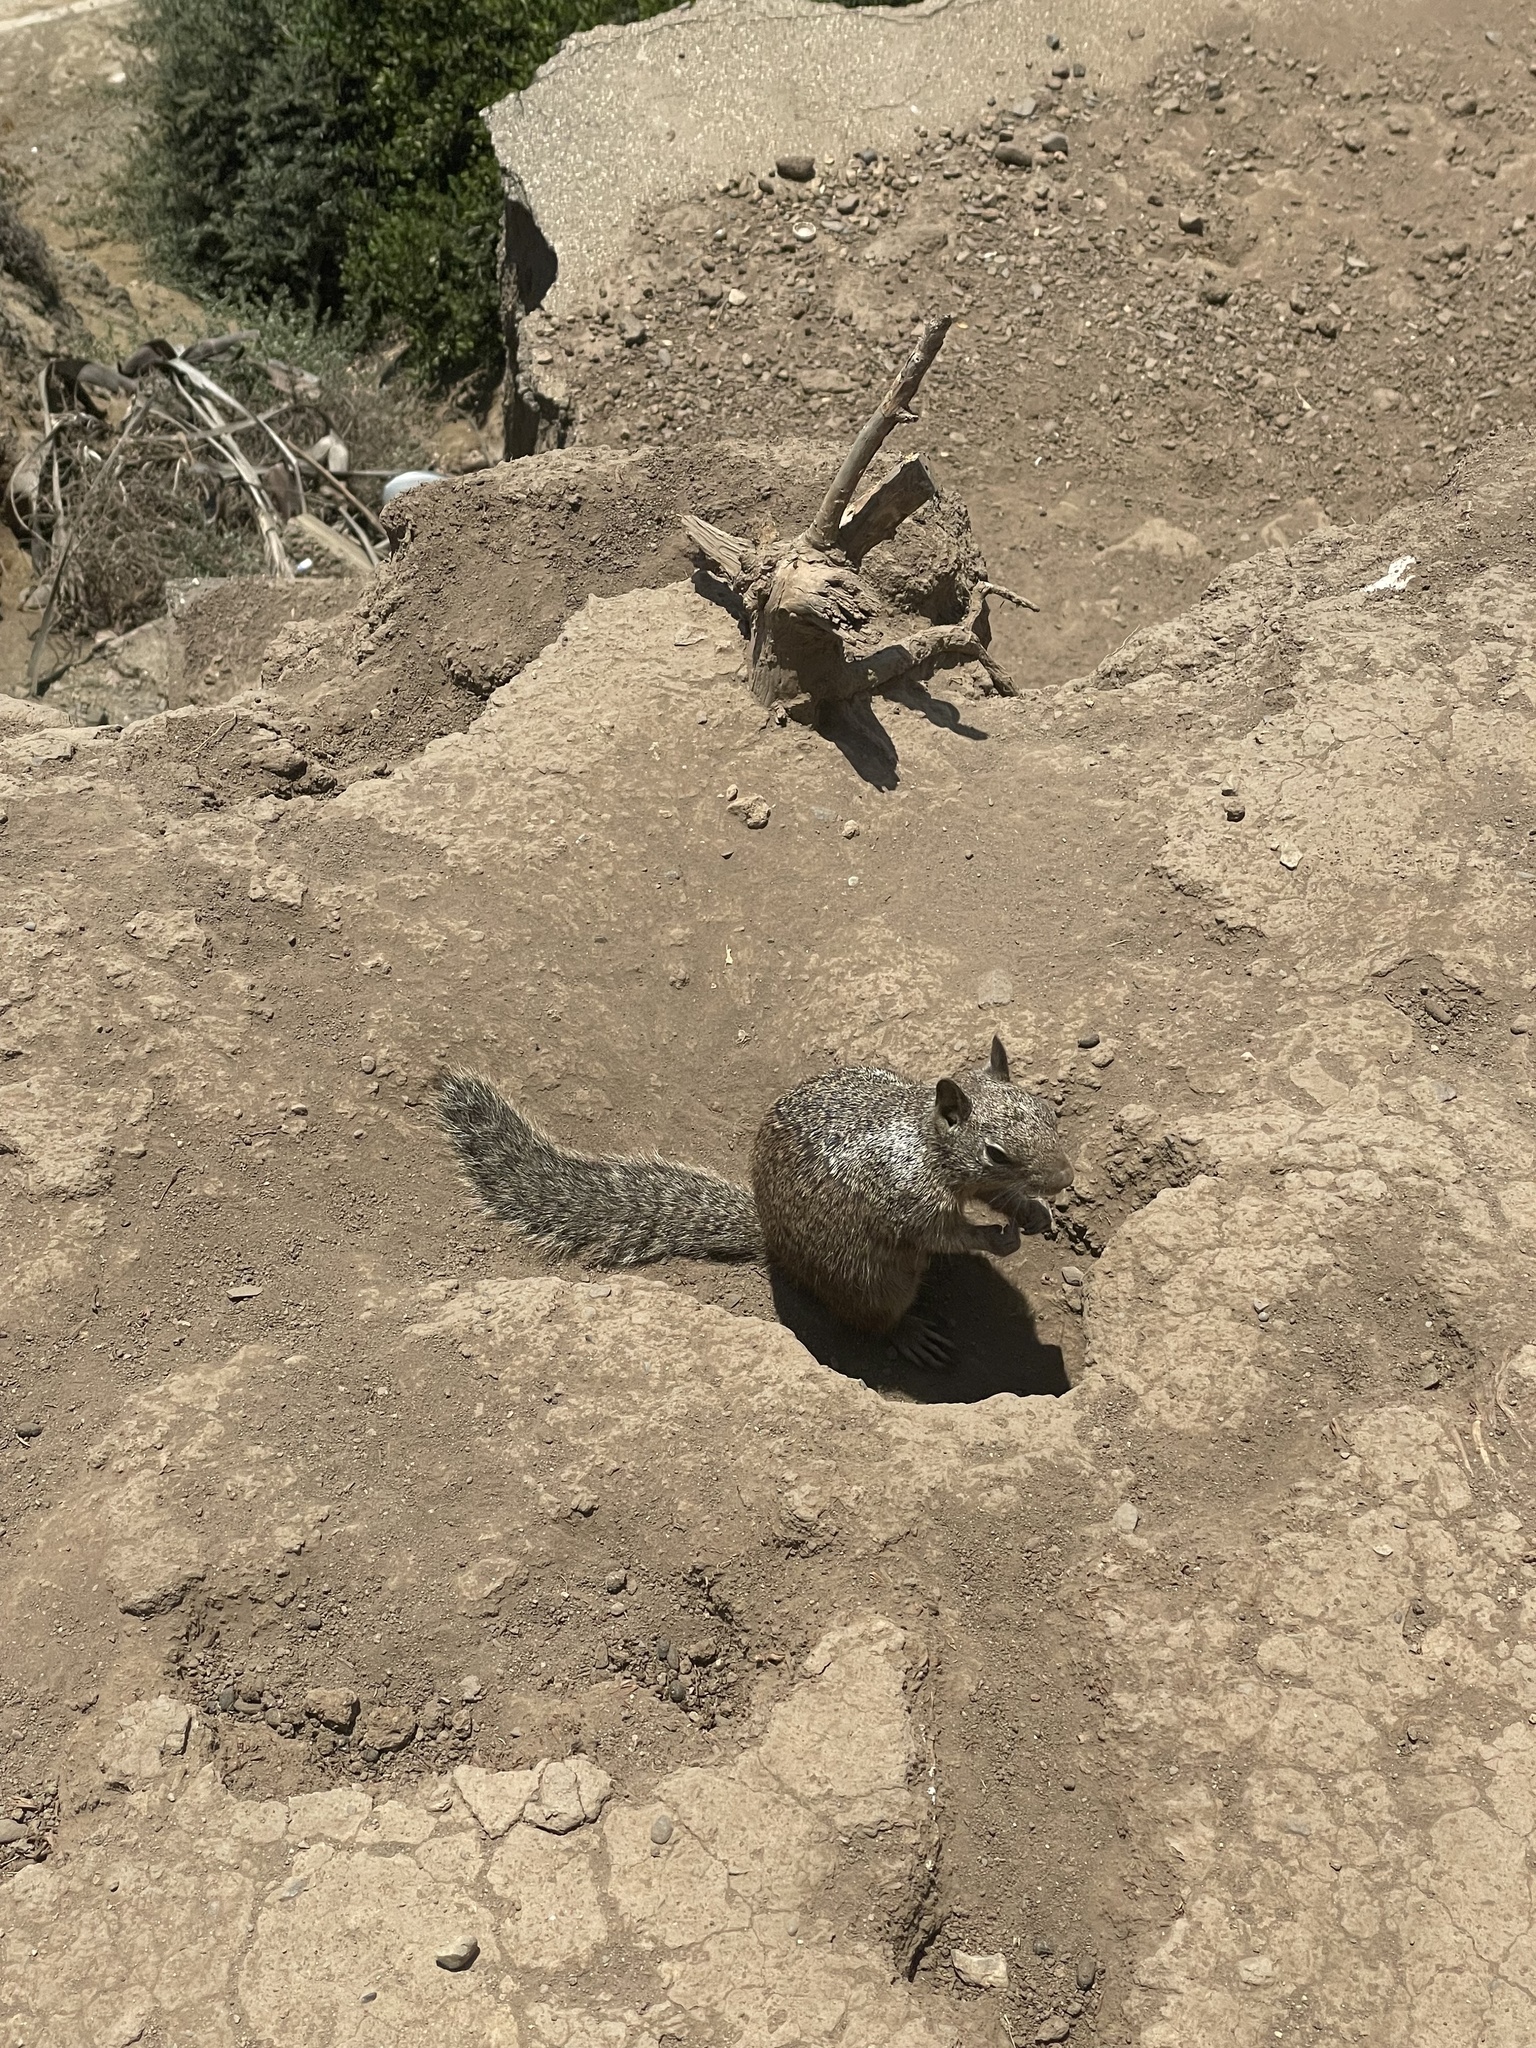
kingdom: Animalia
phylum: Chordata
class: Mammalia
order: Rodentia
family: Sciuridae
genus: Otospermophilus
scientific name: Otospermophilus beecheyi
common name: California ground squirrel
